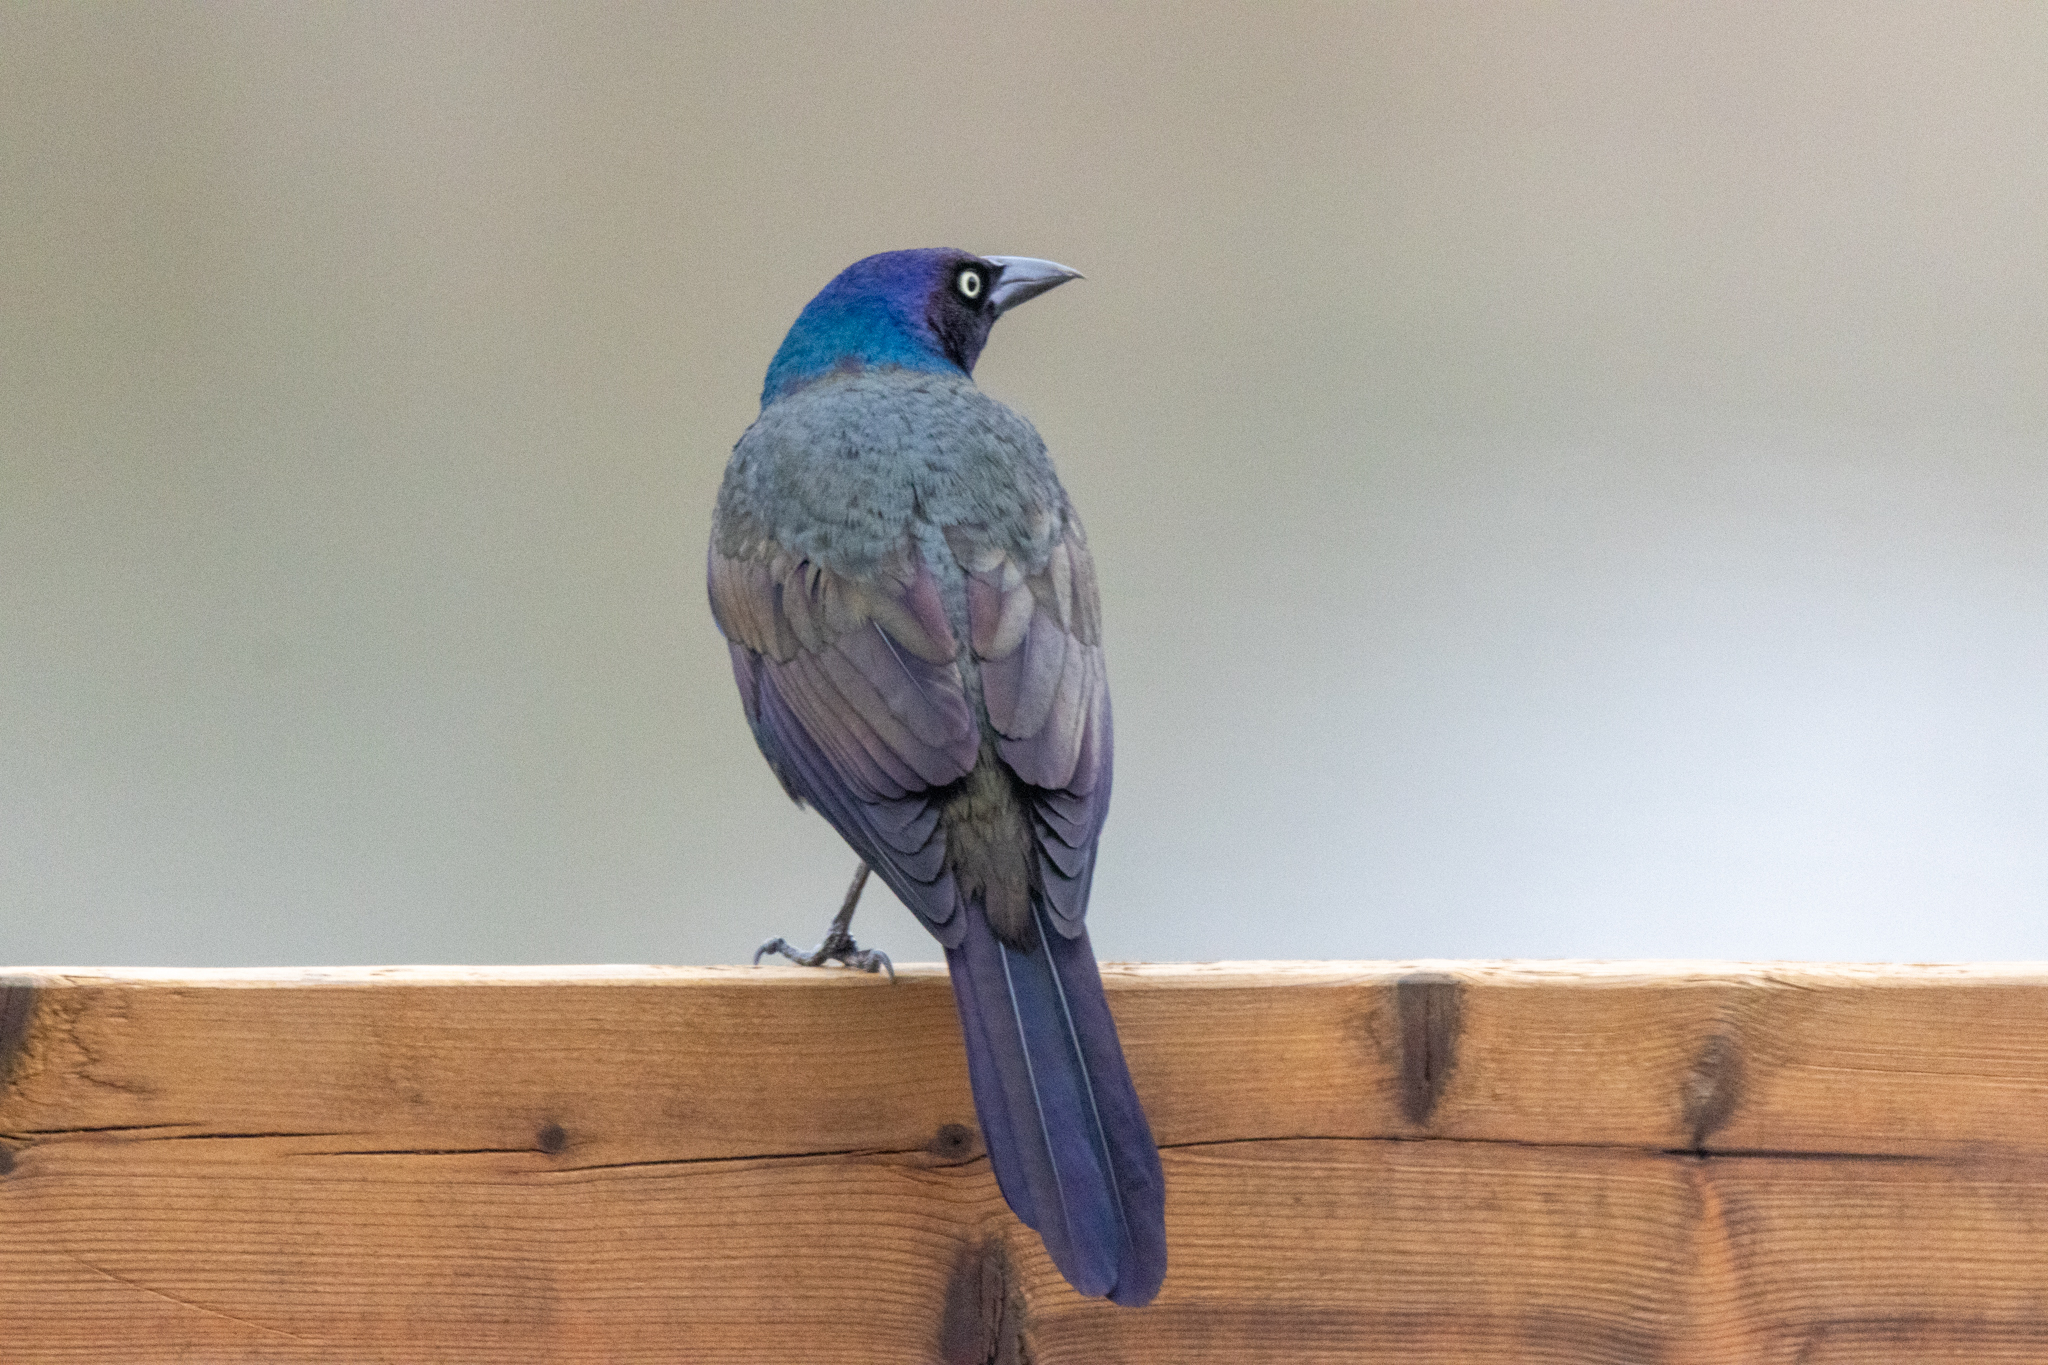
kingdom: Animalia
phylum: Chordata
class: Aves
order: Passeriformes
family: Icteridae
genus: Quiscalus
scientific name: Quiscalus quiscula
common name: Common grackle
